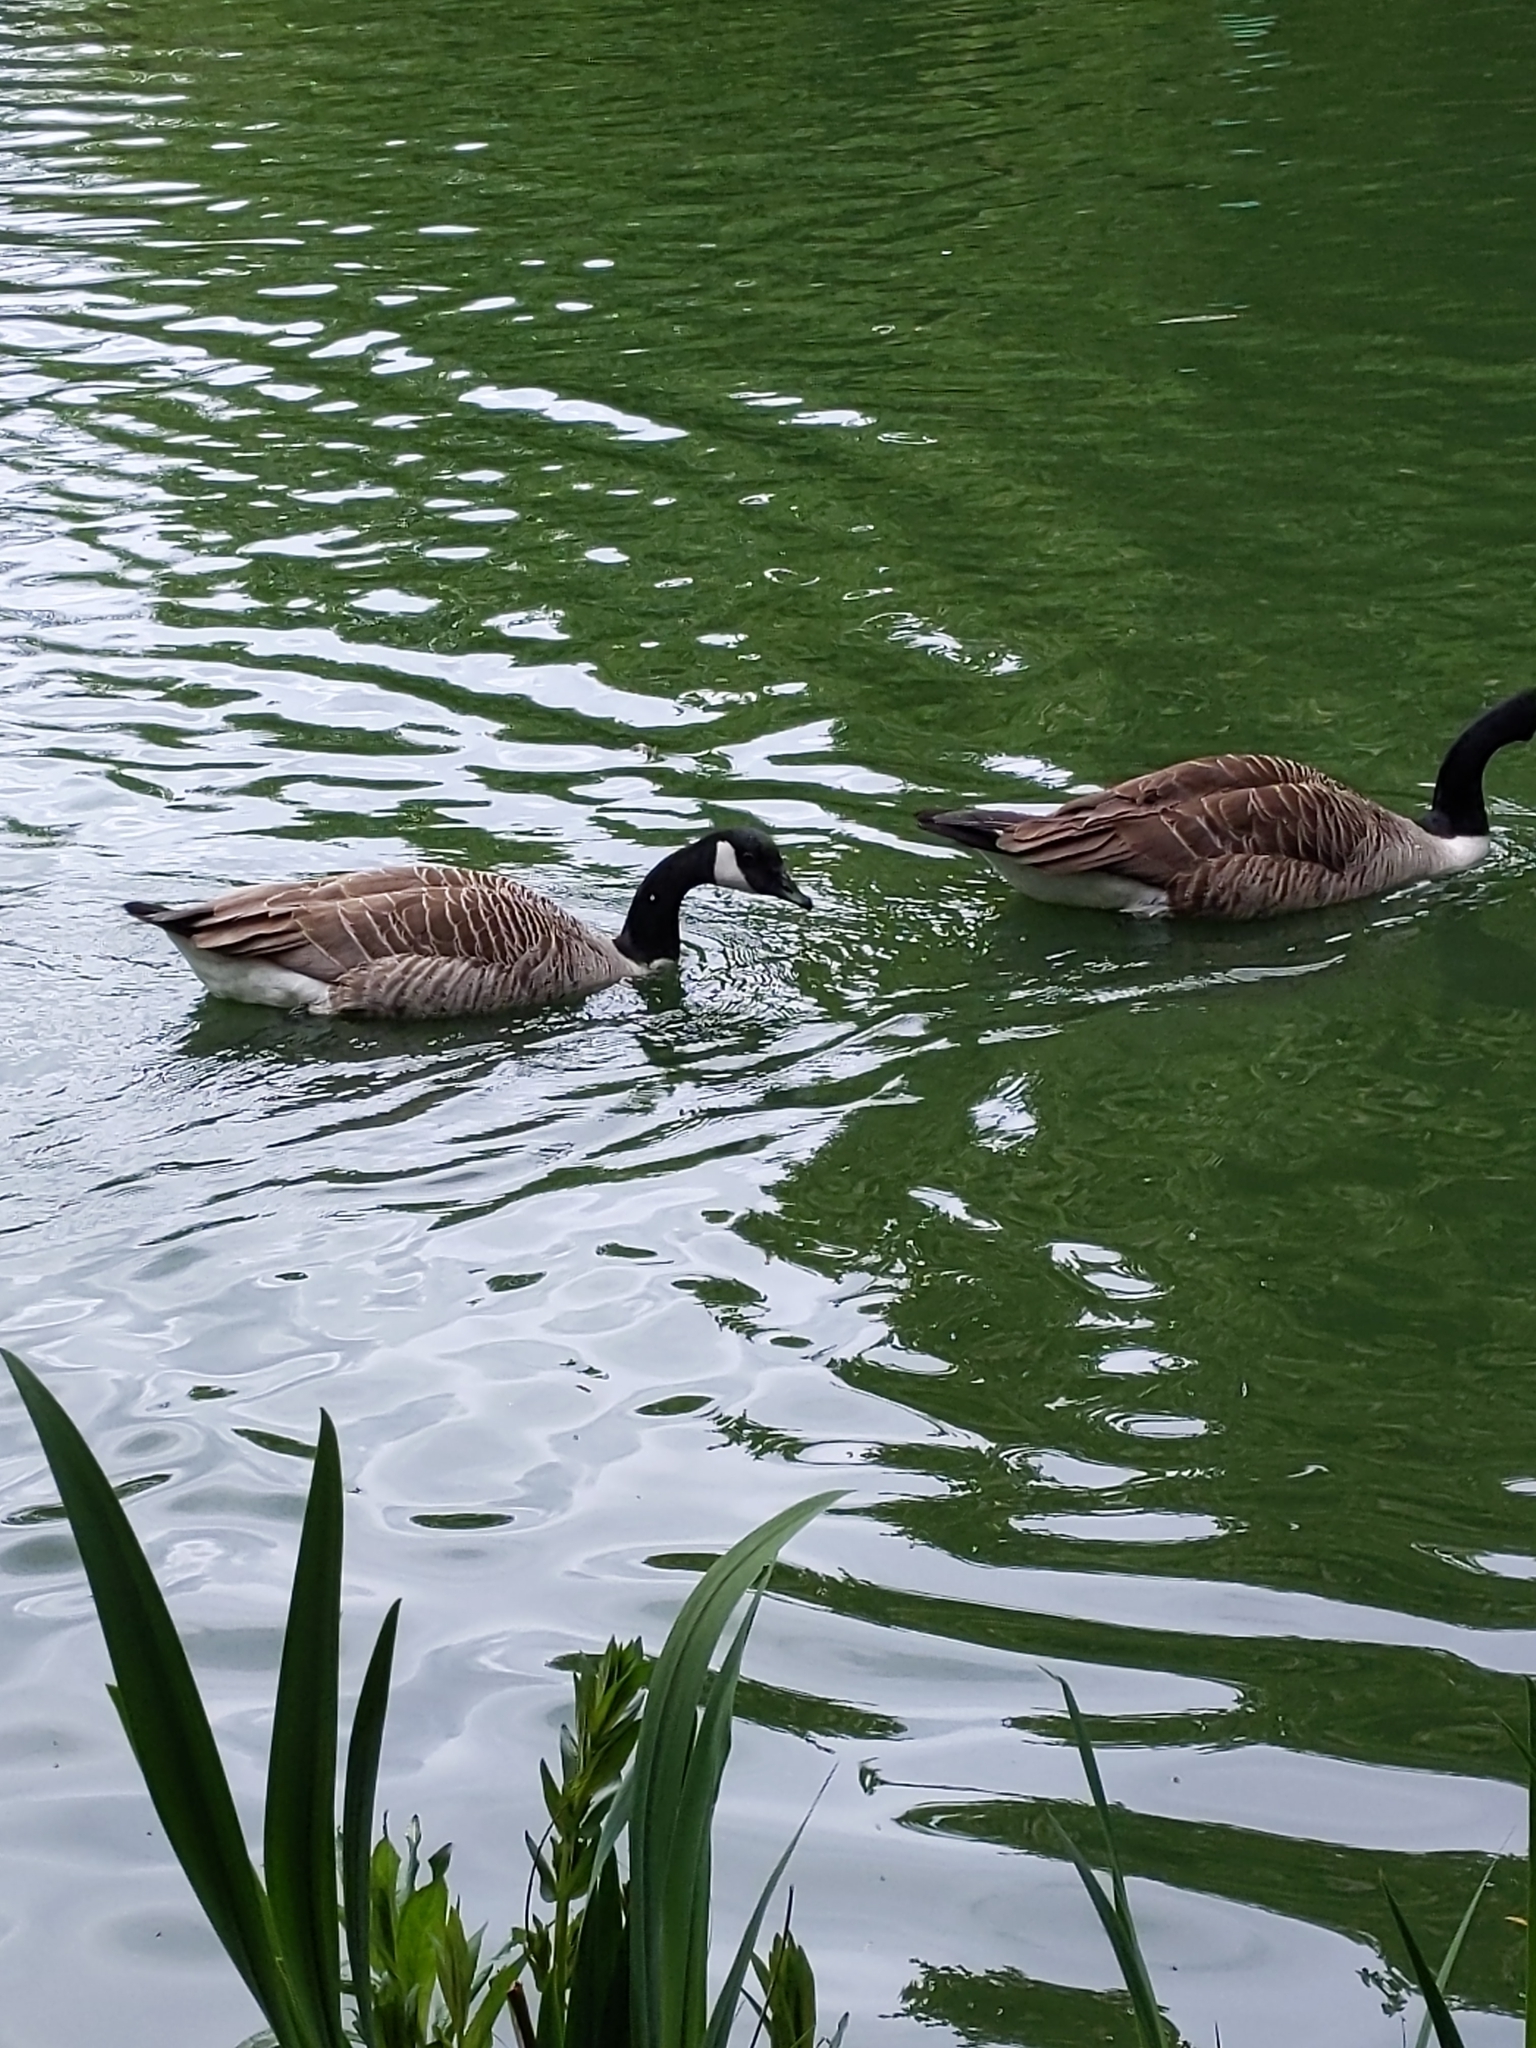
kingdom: Animalia
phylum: Chordata
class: Aves
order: Anseriformes
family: Anatidae
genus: Branta
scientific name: Branta canadensis
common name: Canada goose
